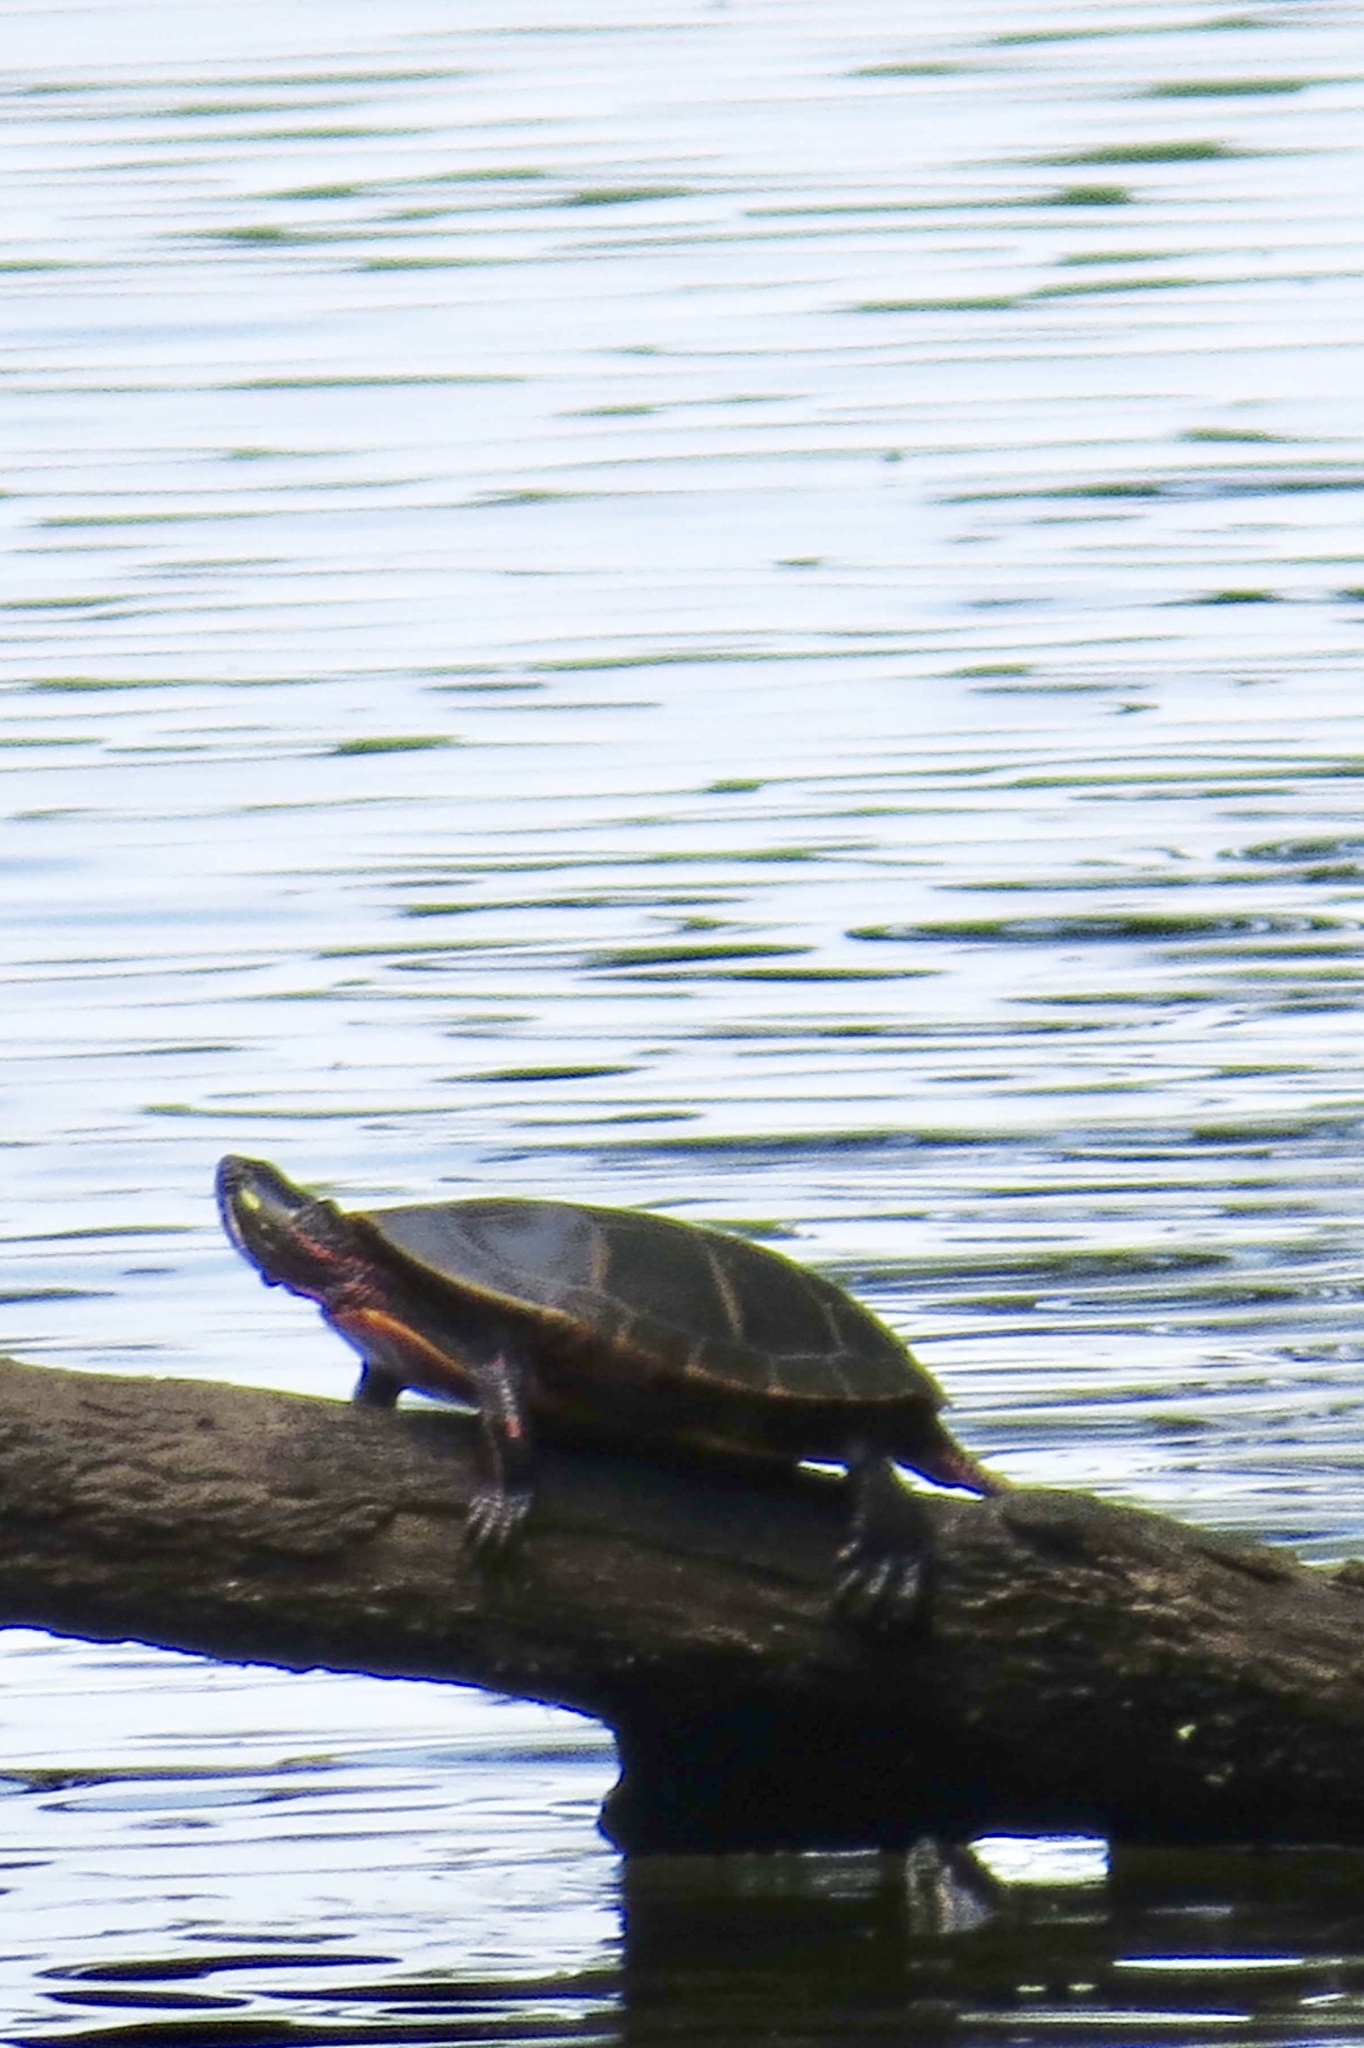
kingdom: Animalia
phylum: Chordata
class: Testudines
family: Emydidae
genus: Chrysemys
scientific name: Chrysemys picta
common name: Painted turtle
